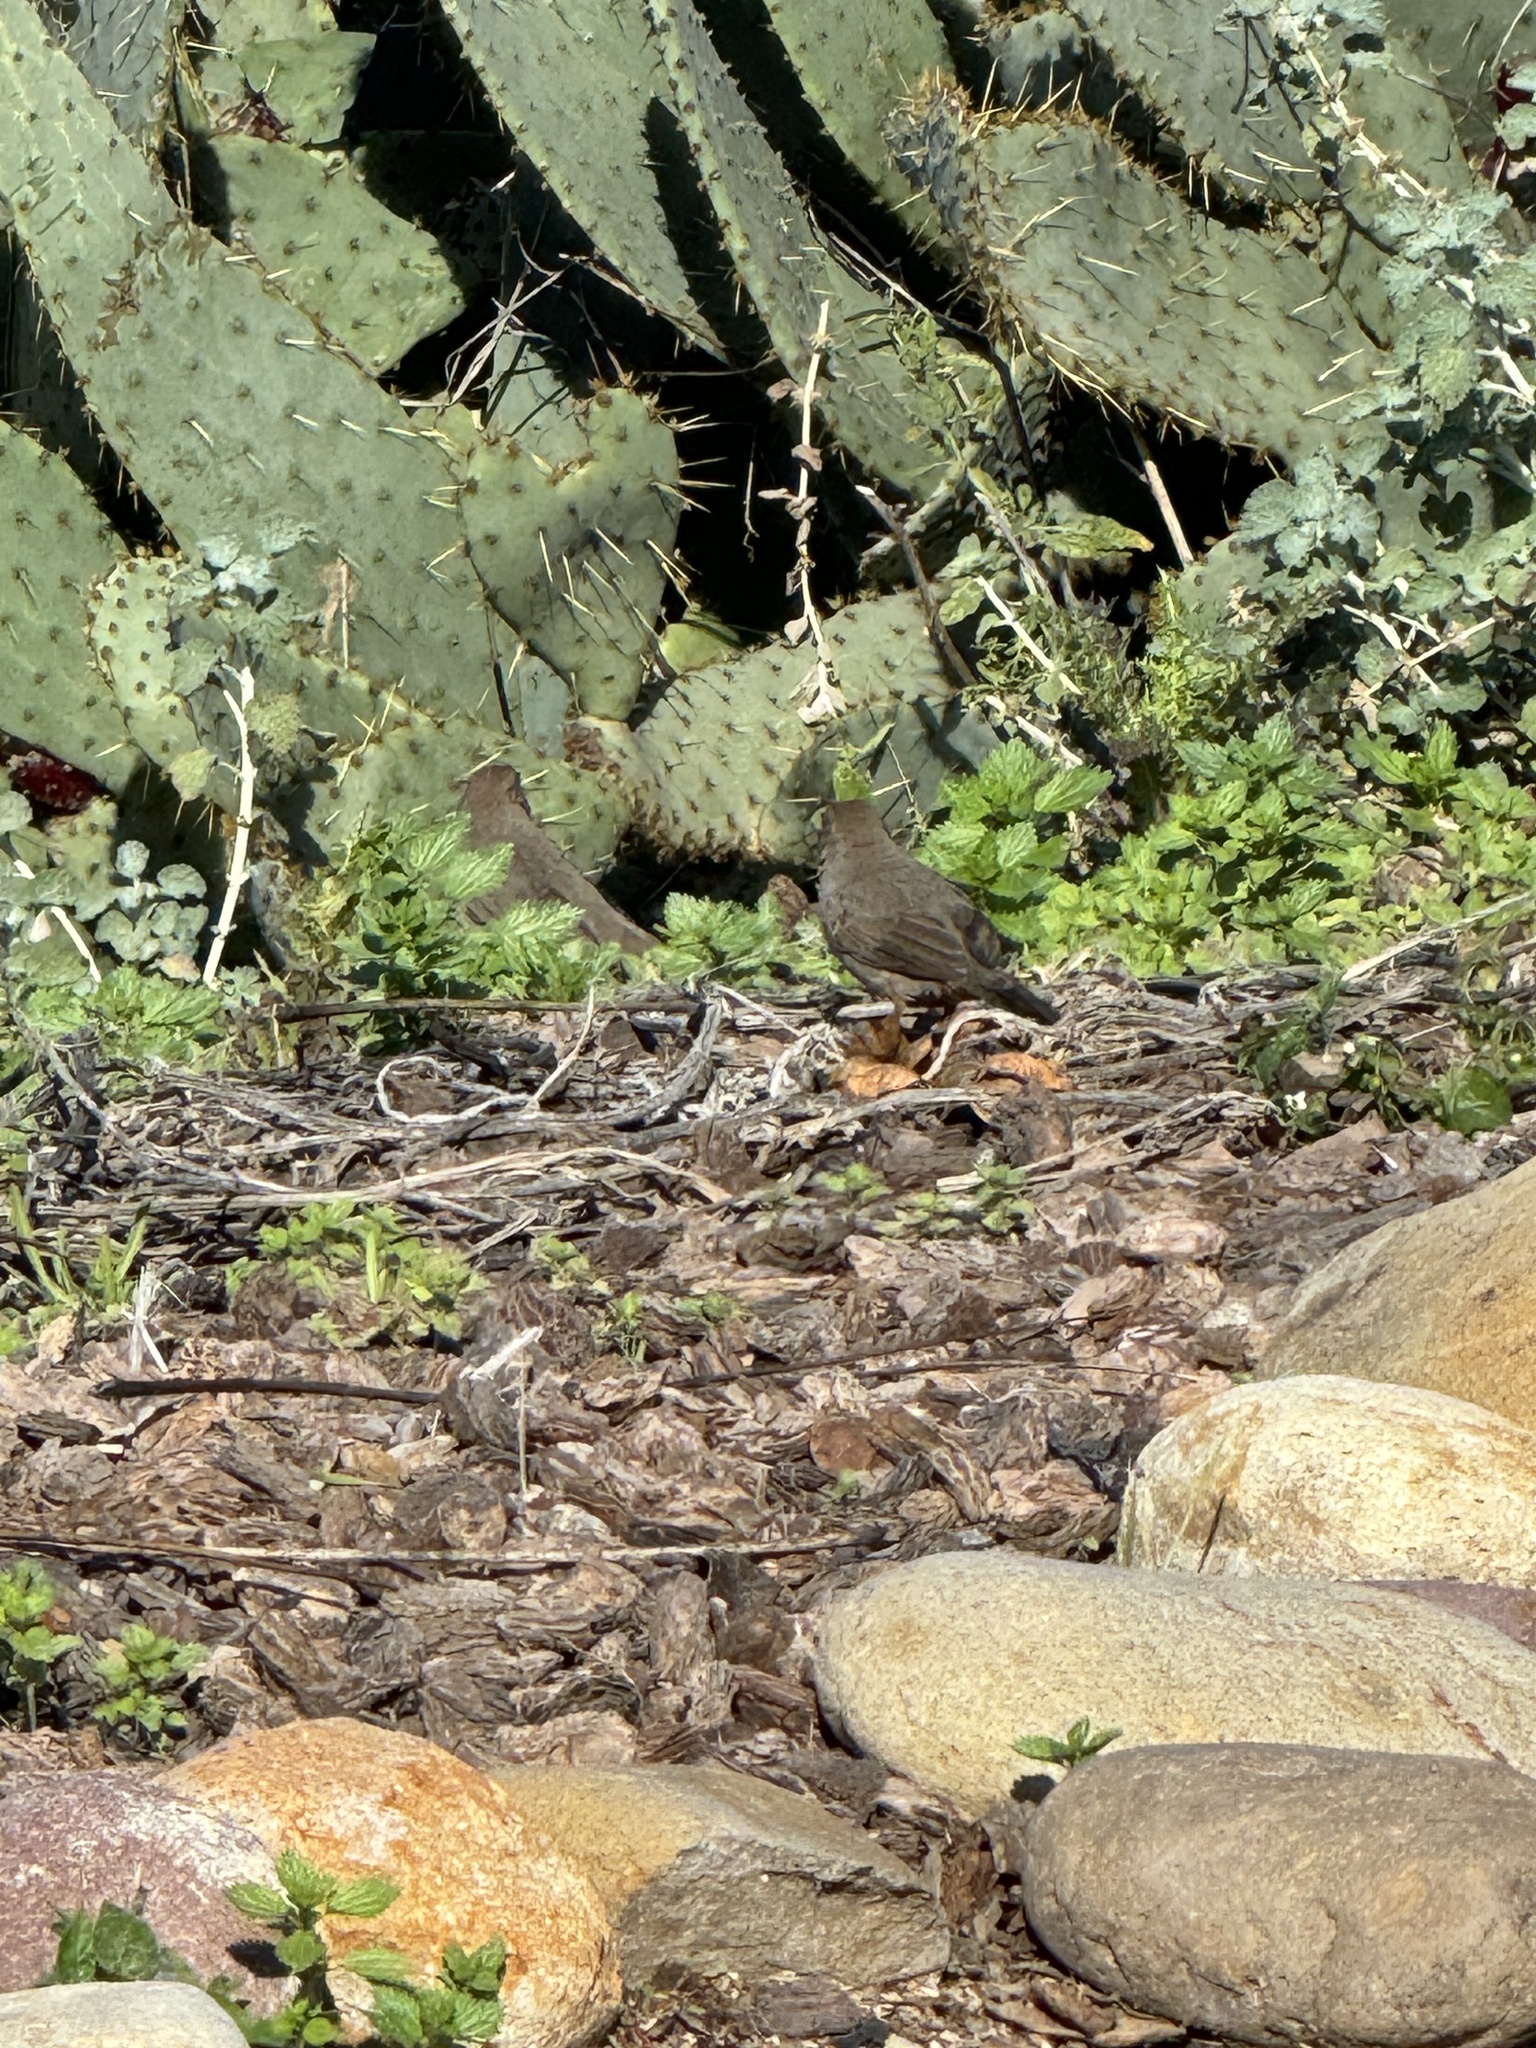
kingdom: Animalia
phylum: Chordata
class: Aves
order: Passeriformes
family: Passerellidae
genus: Melozone
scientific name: Melozone crissalis
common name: California towhee
